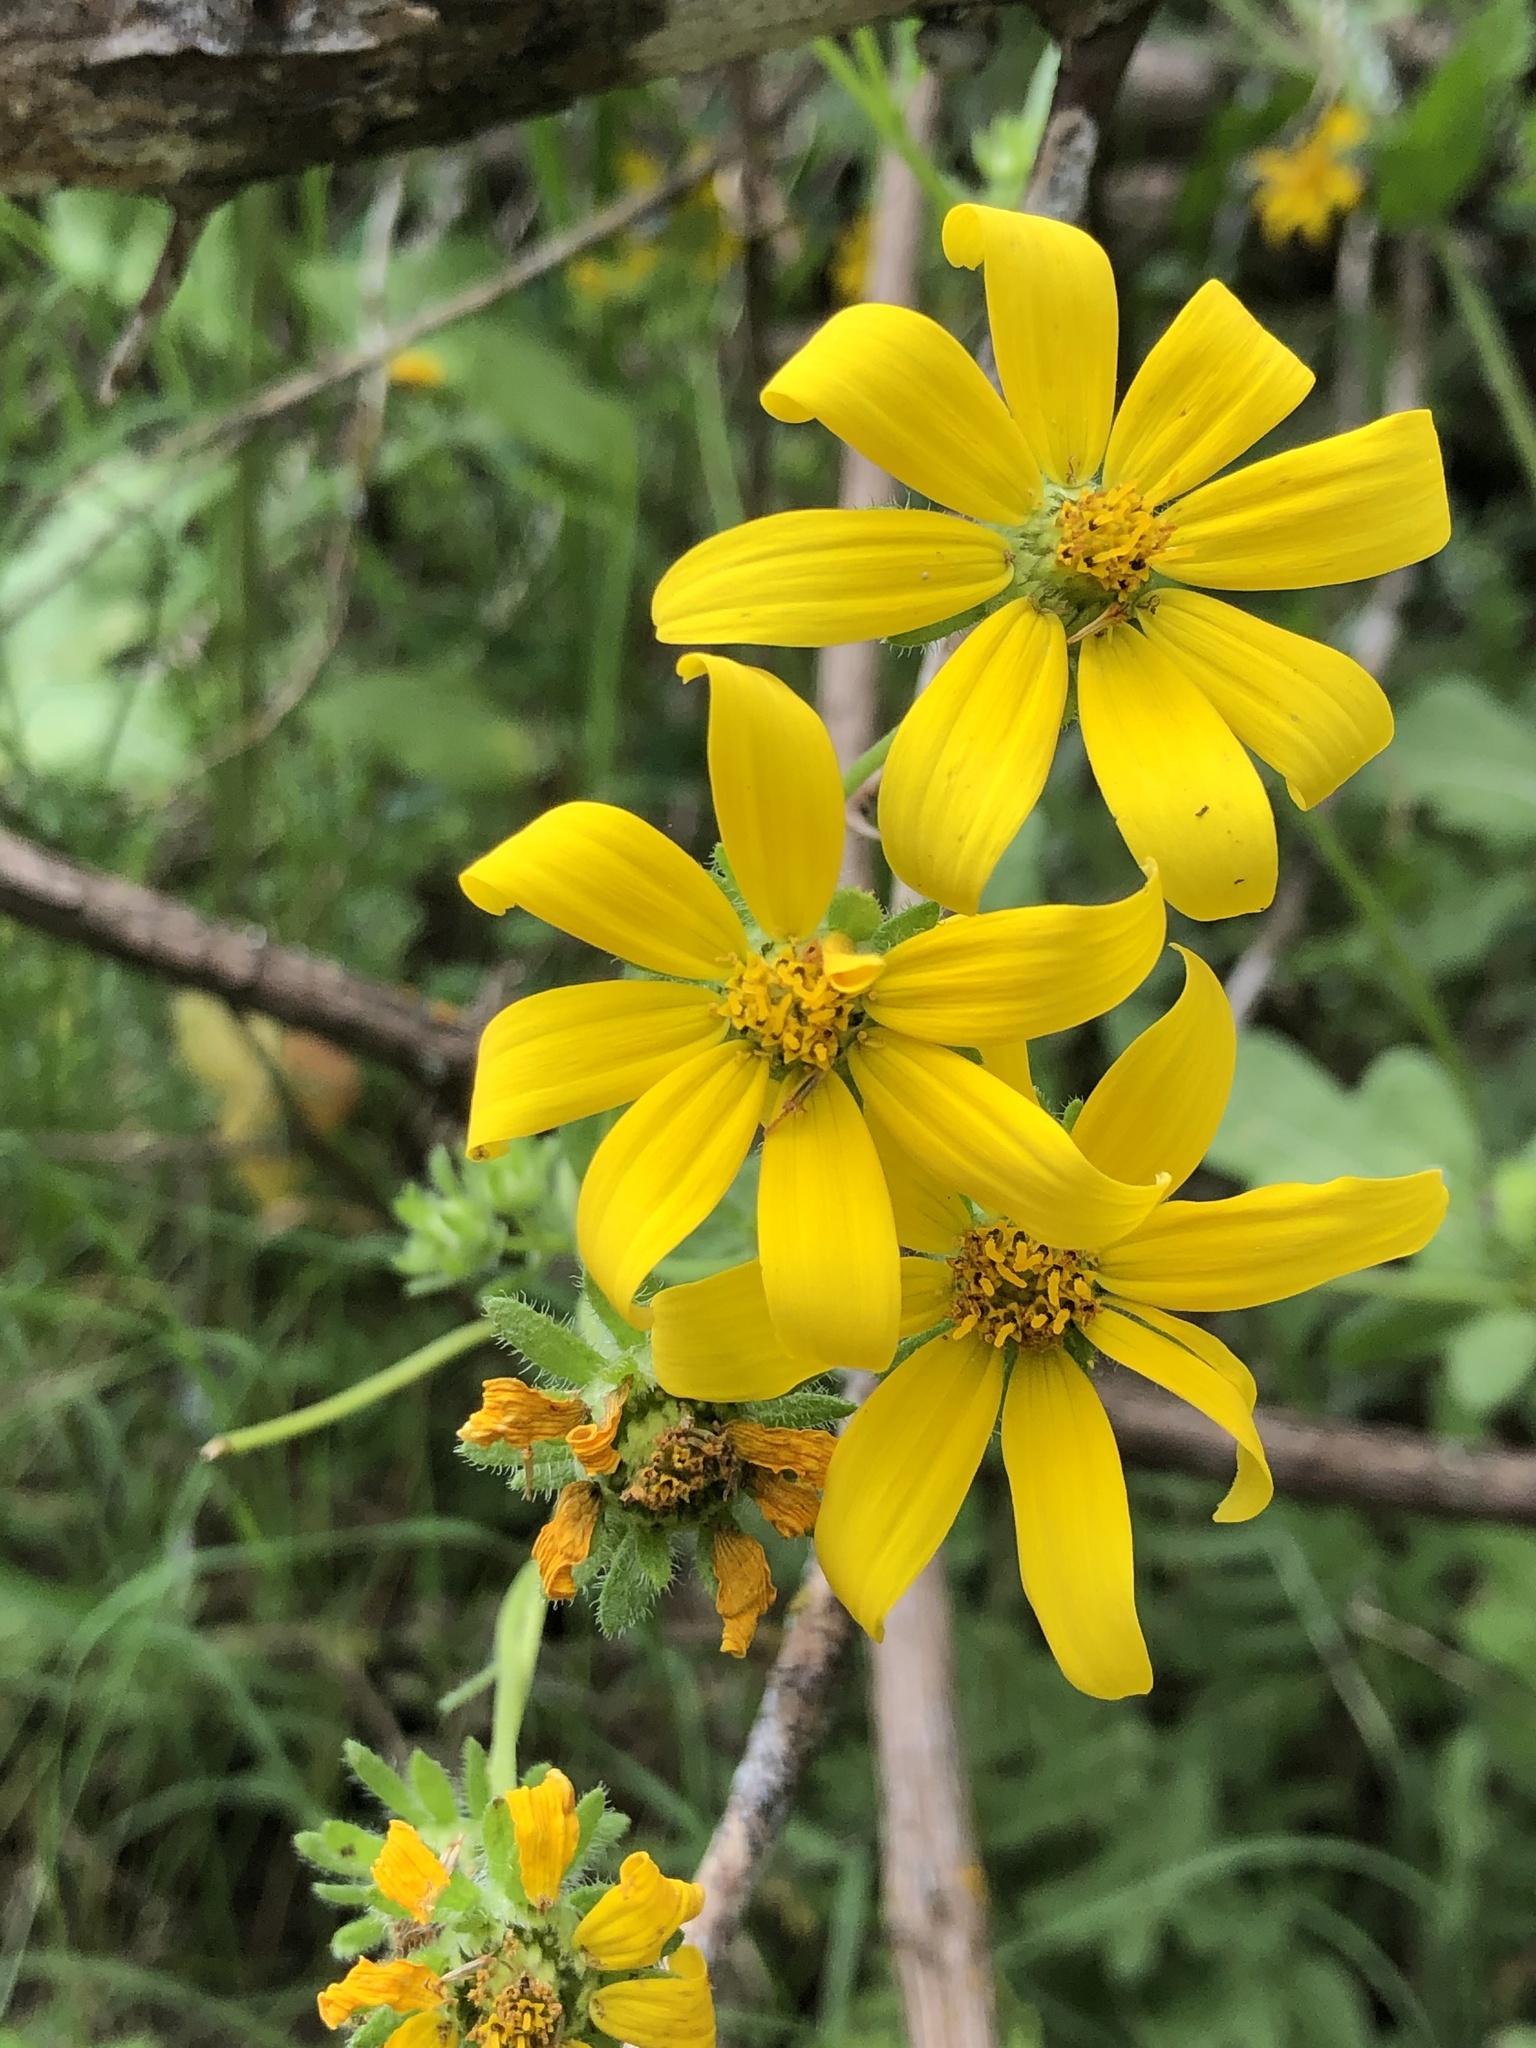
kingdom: Plantae
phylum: Tracheophyta
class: Magnoliopsida
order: Asterales
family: Asteraceae
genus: Engelmannia
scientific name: Engelmannia peristenia
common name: Engelmann's daisy
